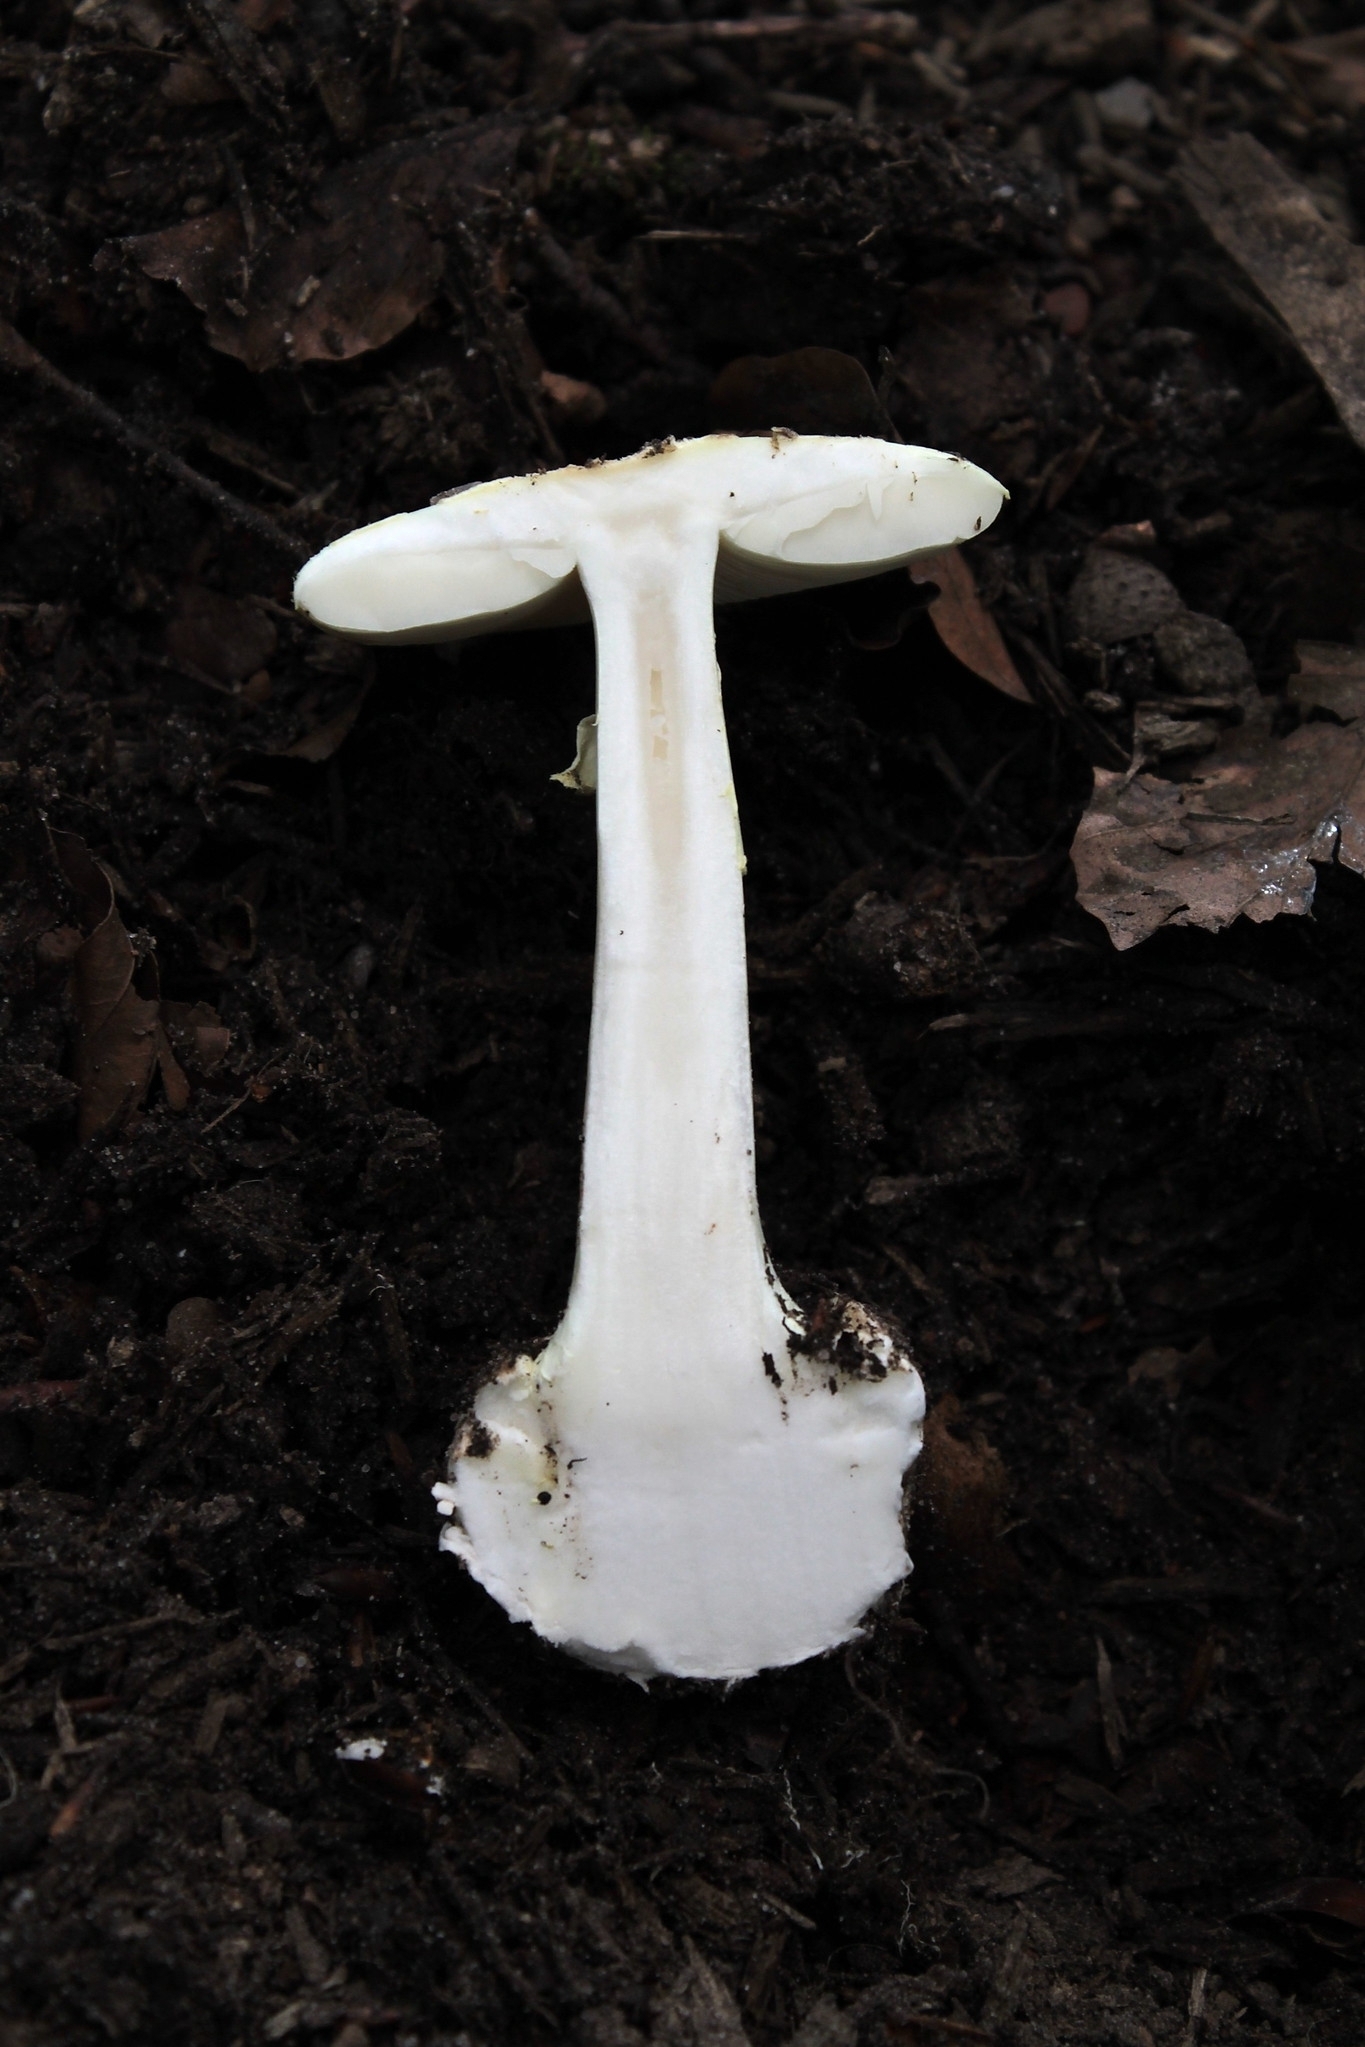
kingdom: Fungi
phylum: Basidiomycota
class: Agaricomycetes
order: Agaricales
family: Amanitaceae
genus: Amanita
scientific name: Amanita citrina
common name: False death-cap
